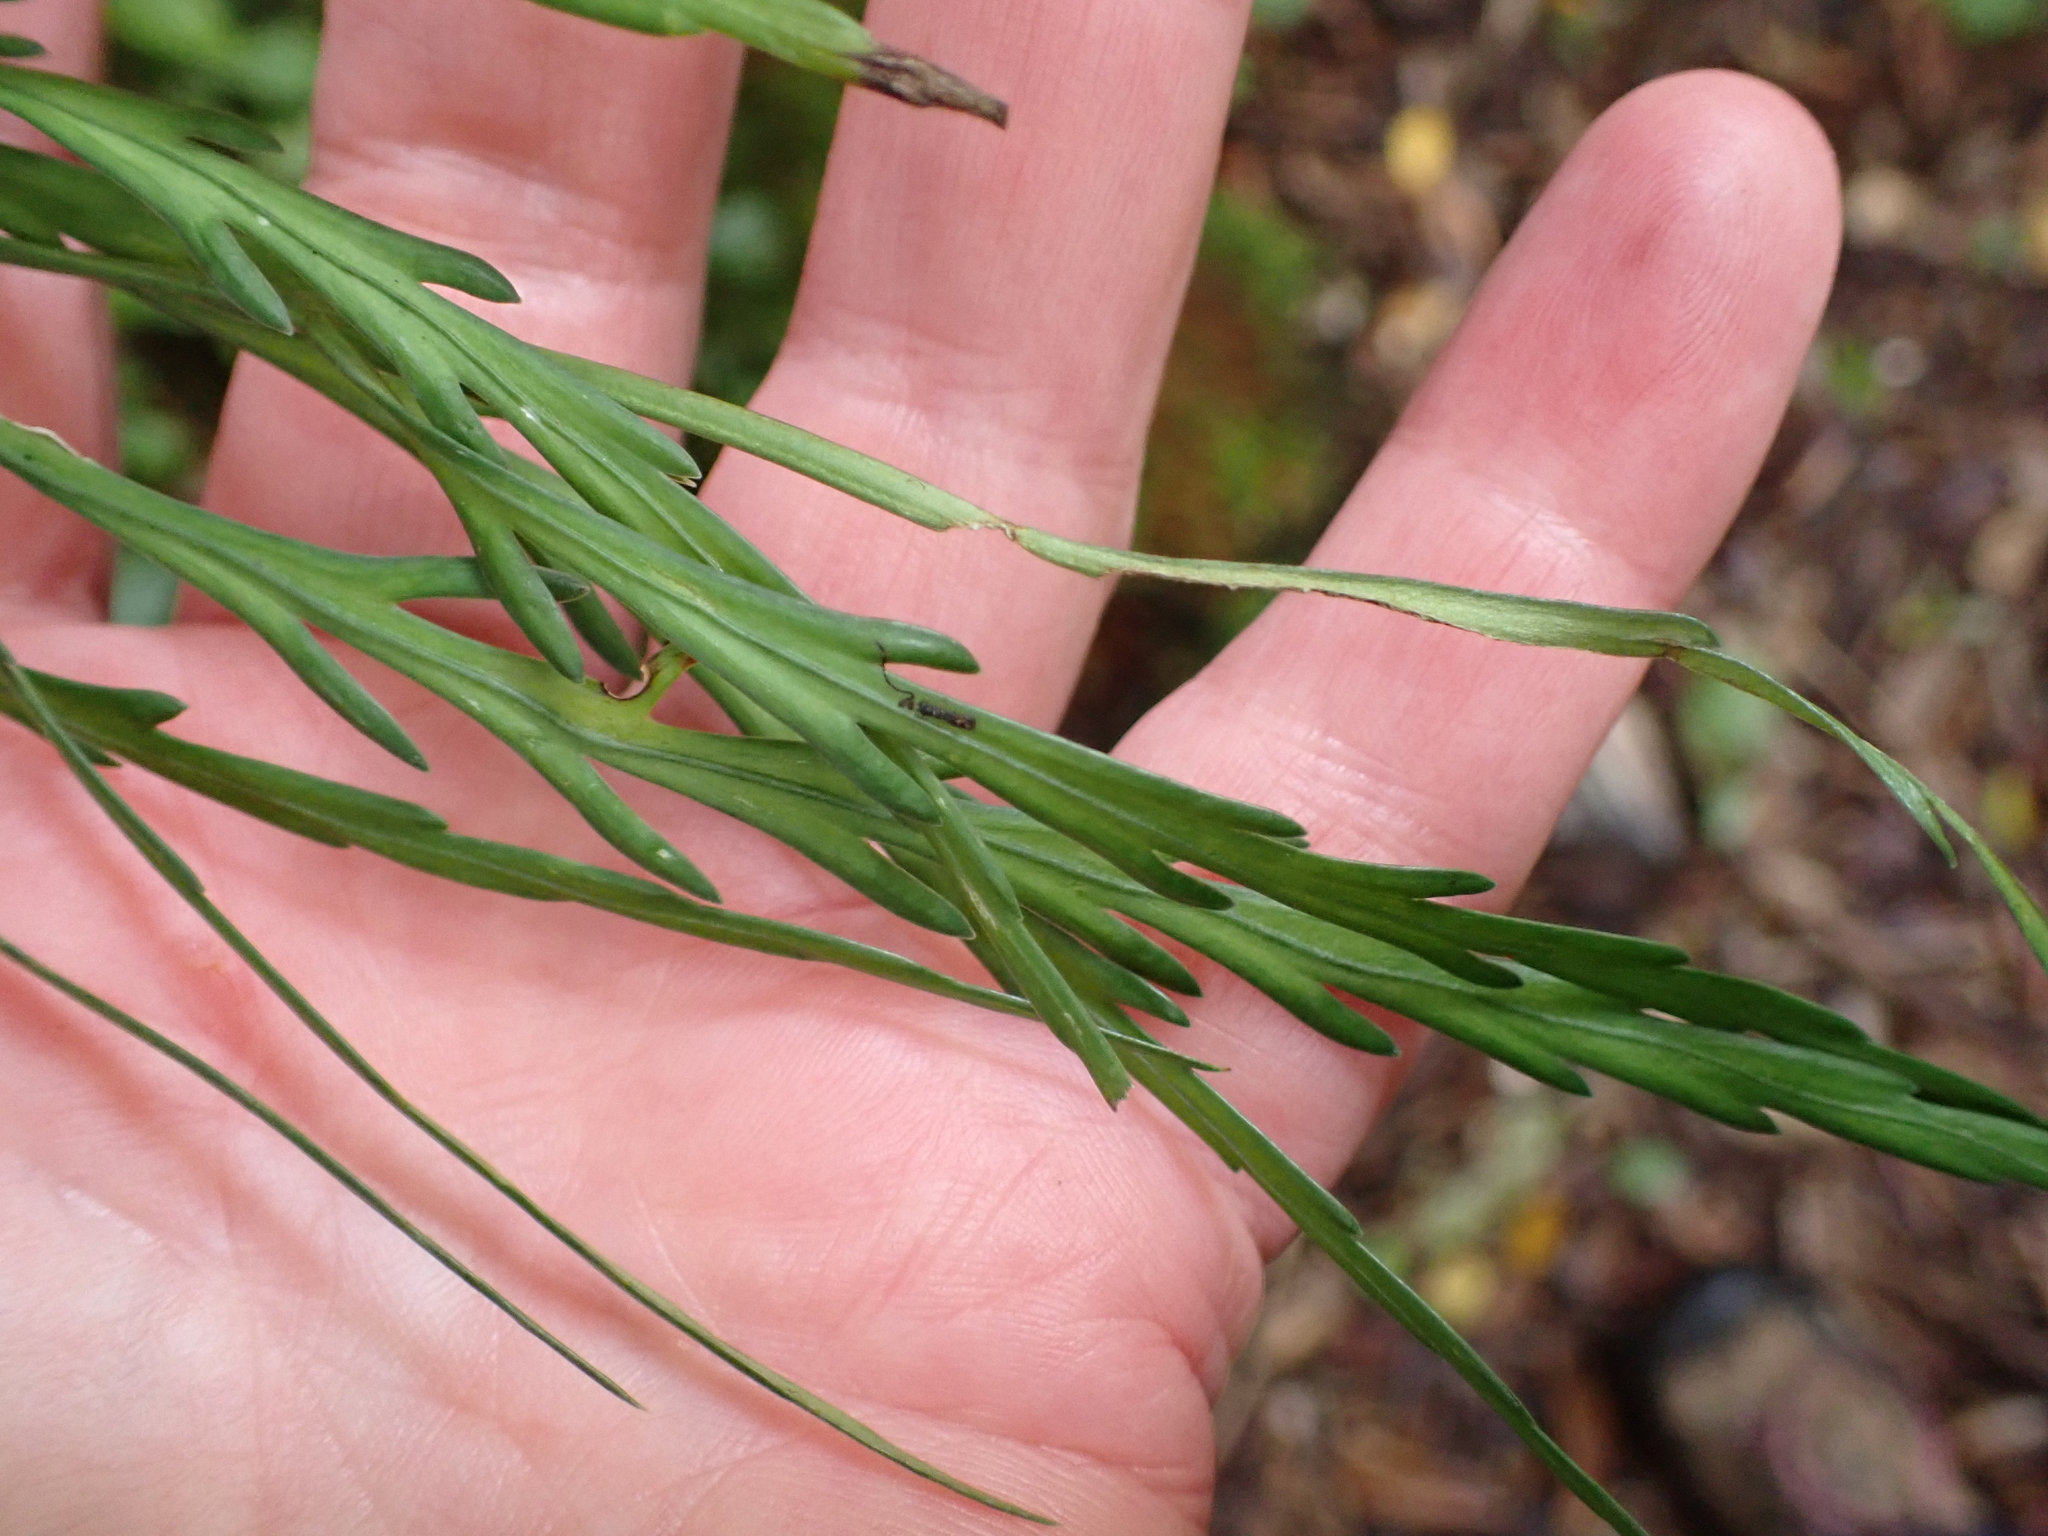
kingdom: Plantae
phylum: Tracheophyta
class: Polypodiopsida
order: Polypodiales
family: Aspleniaceae
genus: Asplenium
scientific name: Asplenium flaccidum
